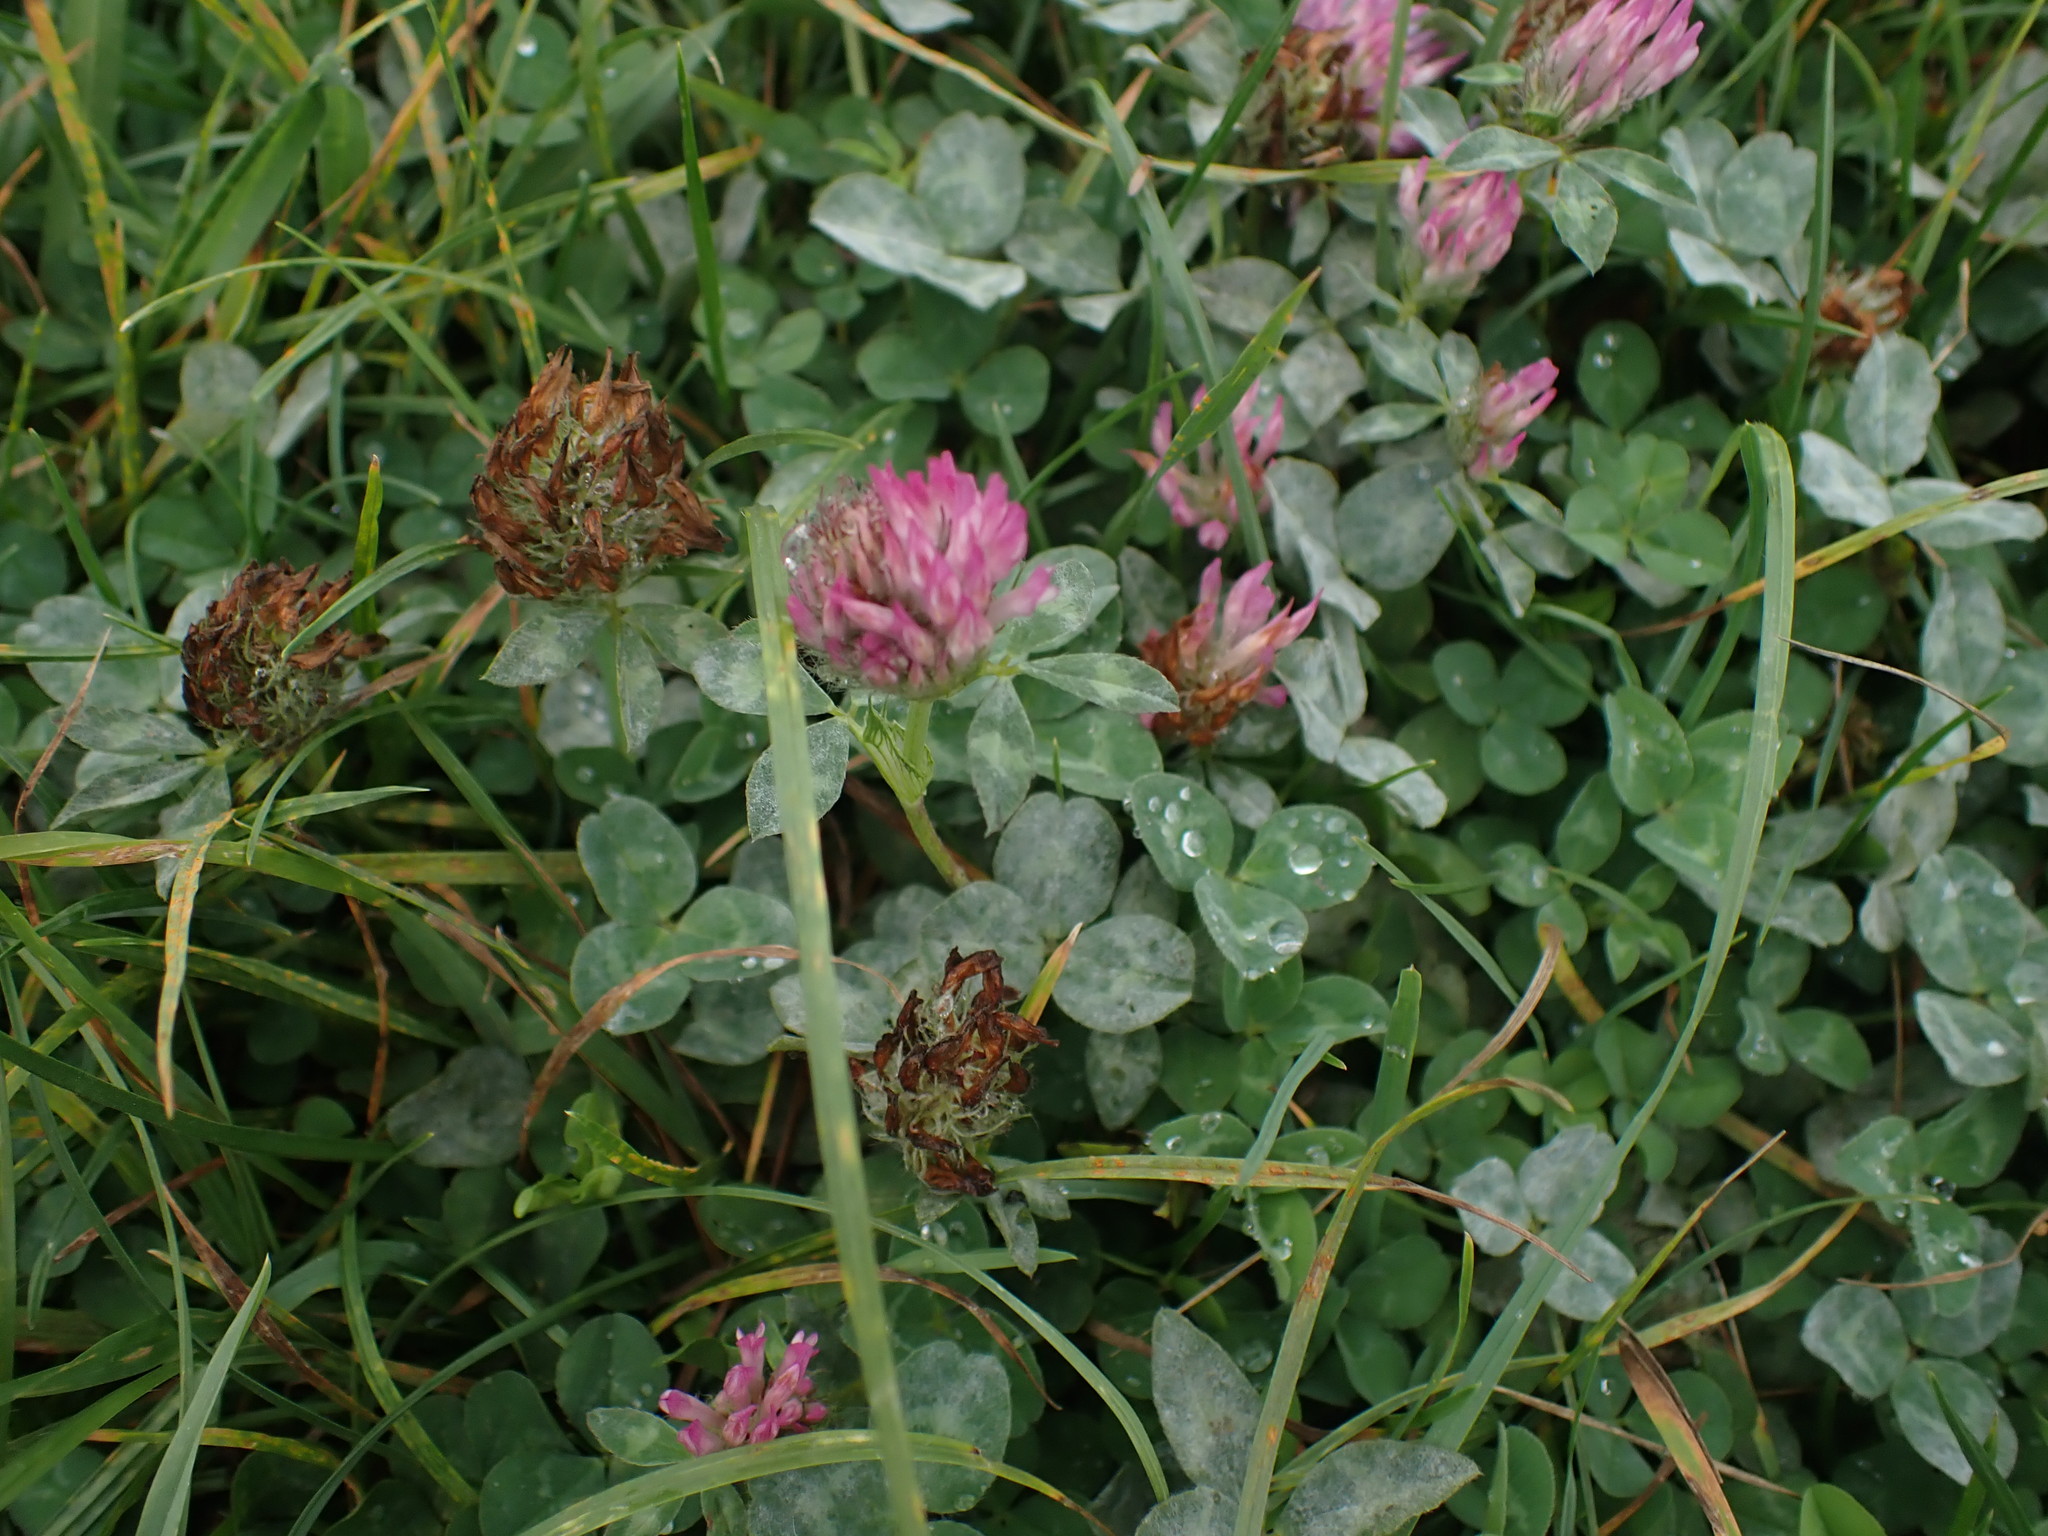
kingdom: Plantae
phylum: Tracheophyta
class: Magnoliopsida
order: Fabales
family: Fabaceae
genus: Trifolium
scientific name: Trifolium pratense
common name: Red clover
